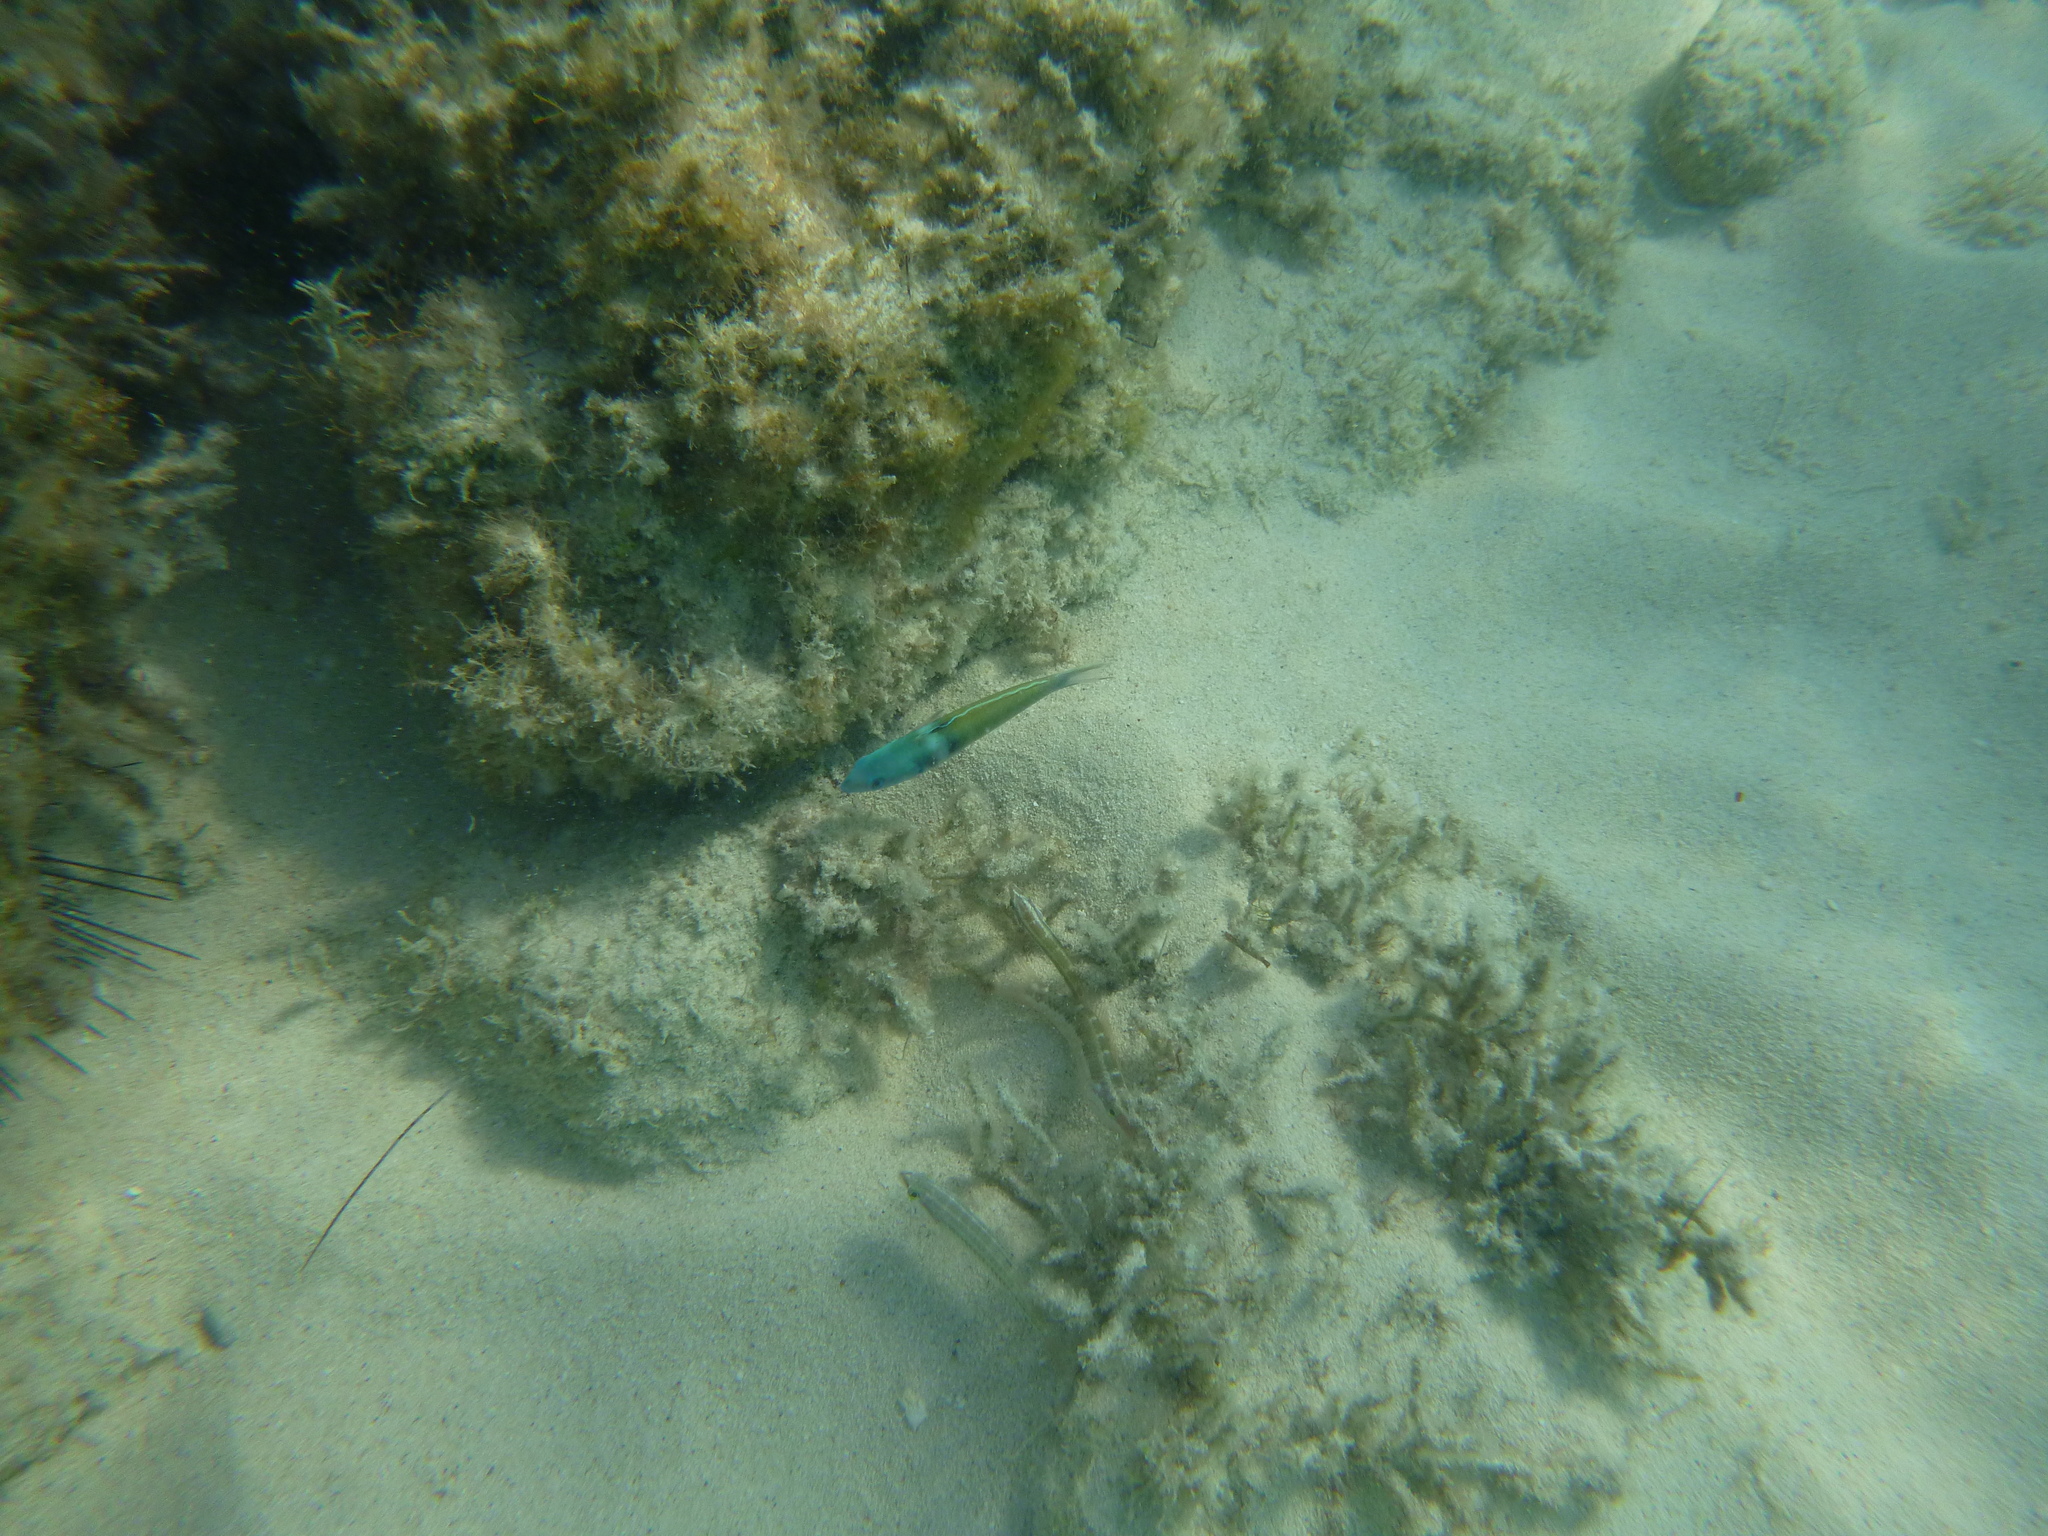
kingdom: Animalia
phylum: Chordata
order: Perciformes
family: Labridae
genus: Thalassoma
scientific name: Thalassoma bifasciatum
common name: Bluehead wrasse
